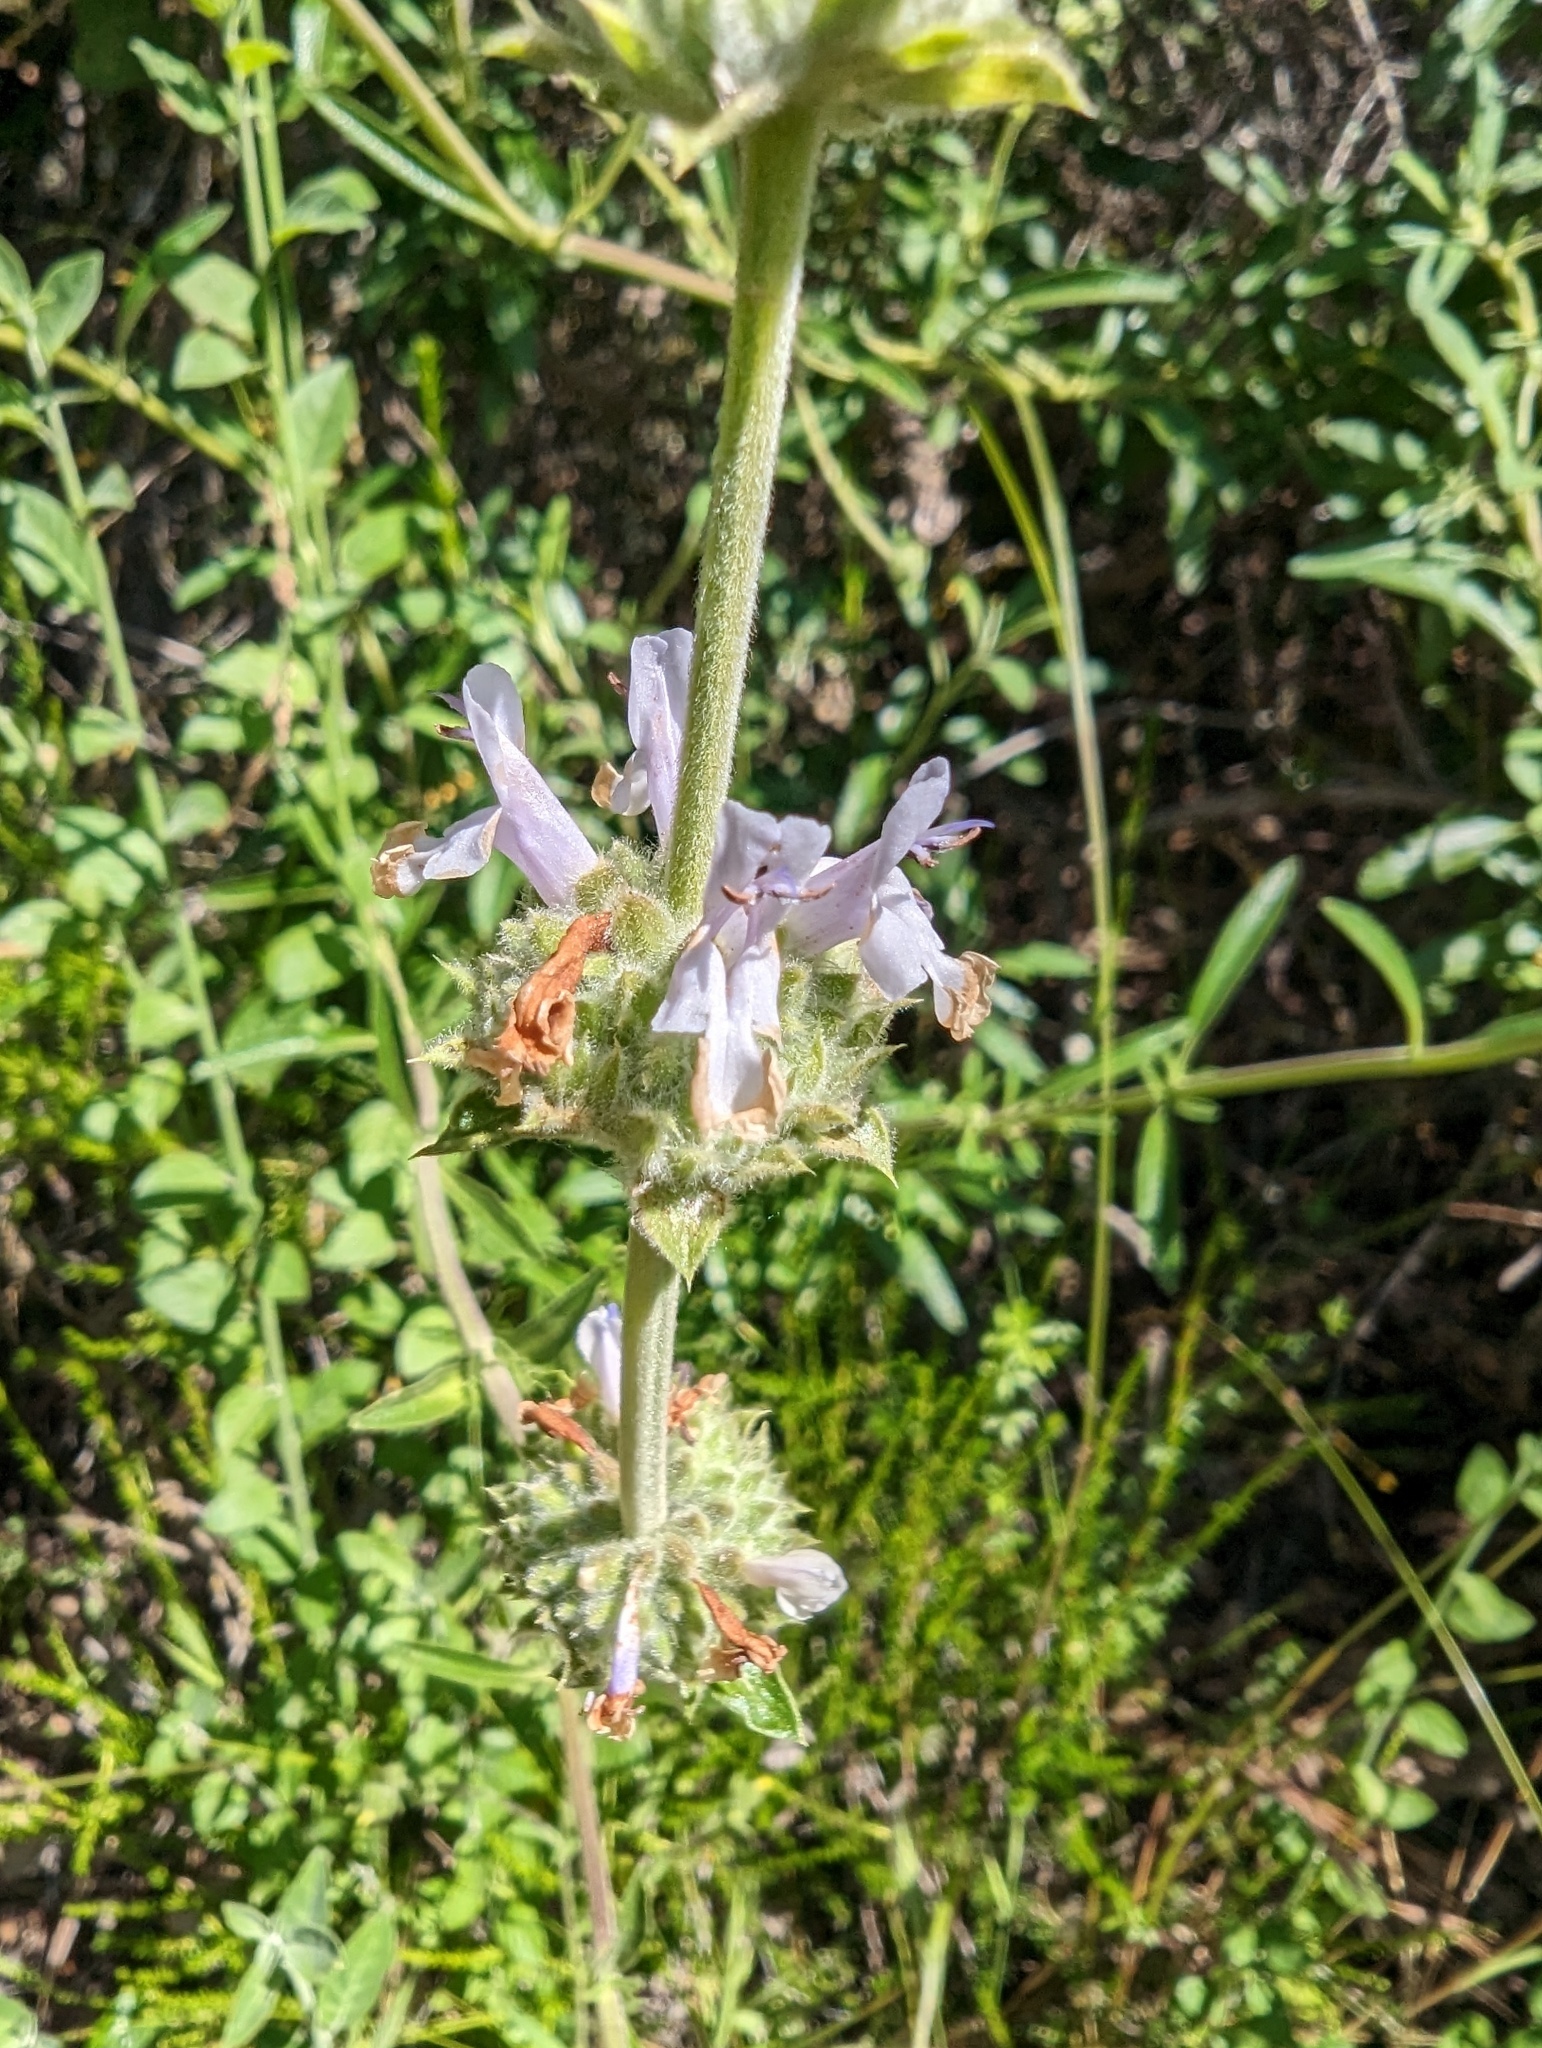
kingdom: Plantae
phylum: Tracheophyta
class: Magnoliopsida
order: Lamiales
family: Lamiaceae
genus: Salvia
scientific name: Salvia mellifera
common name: Black sage
